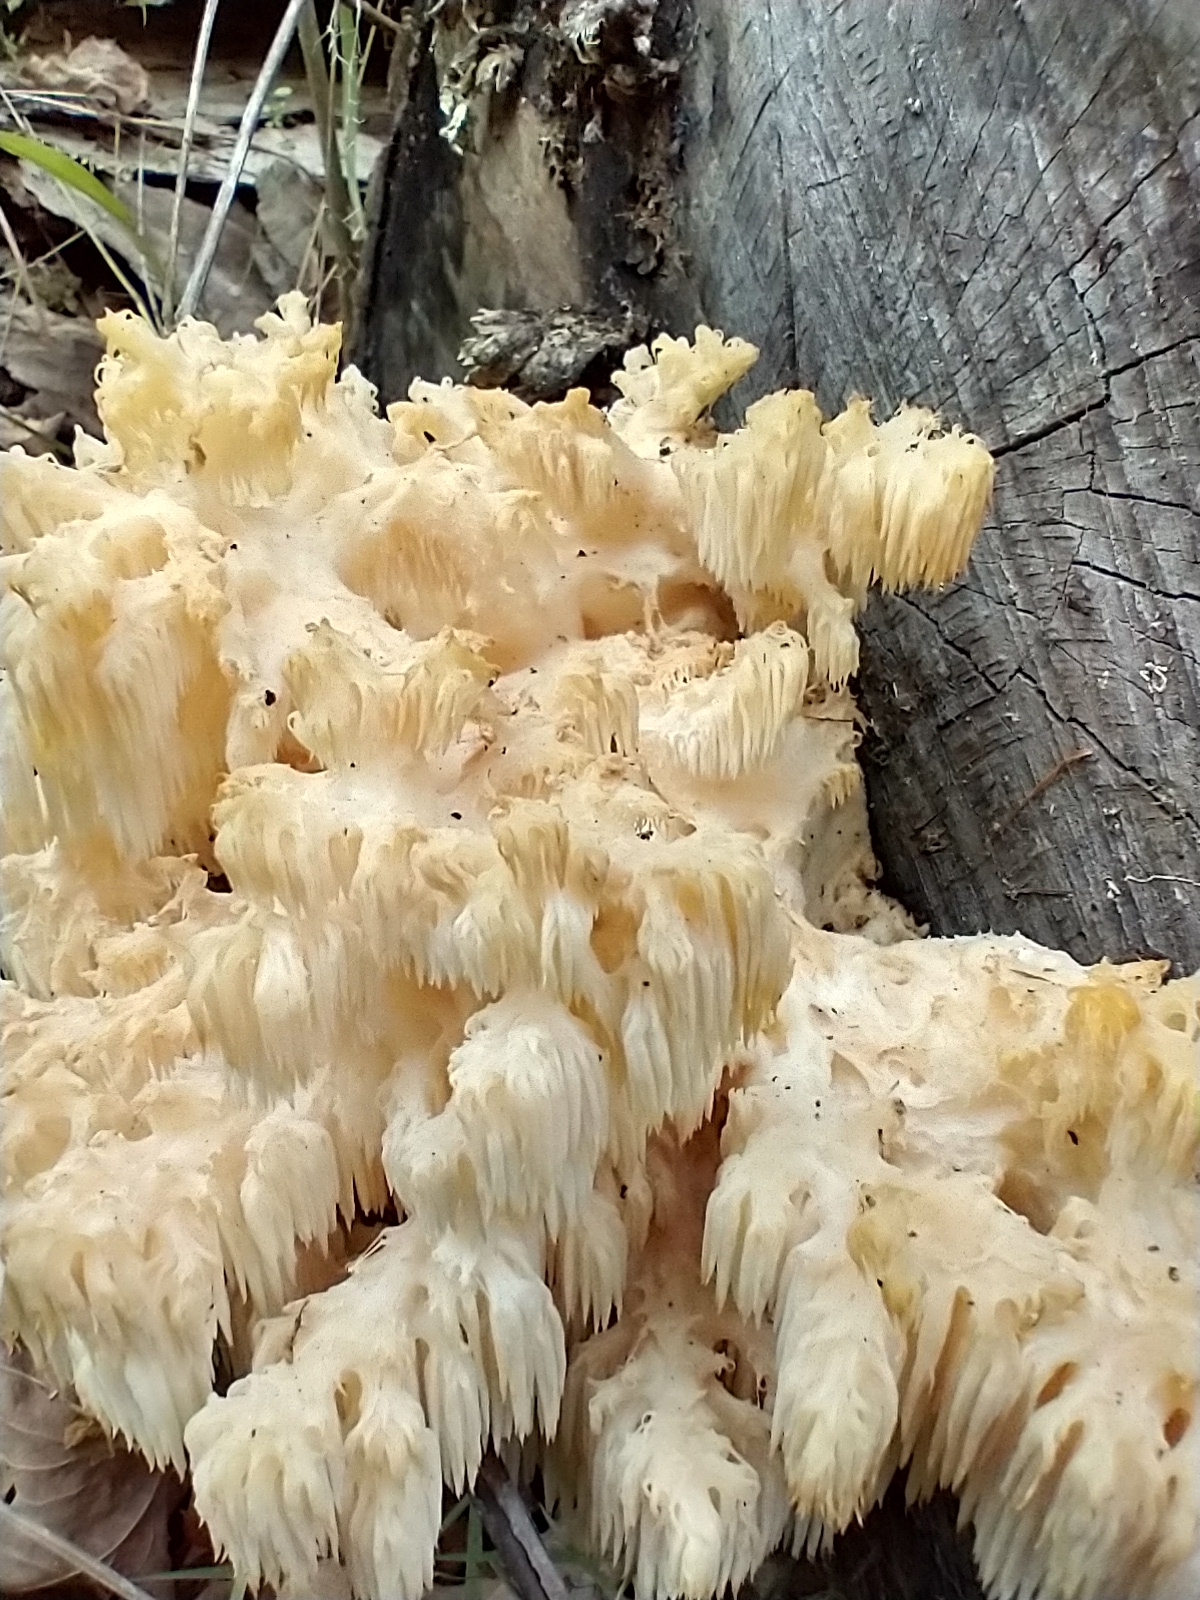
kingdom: Fungi
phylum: Basidiomycota
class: Agaricomycetes
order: Russulales
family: Hericiaceae
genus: Hericium
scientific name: Hericium americanum
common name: Bear's head tooth
